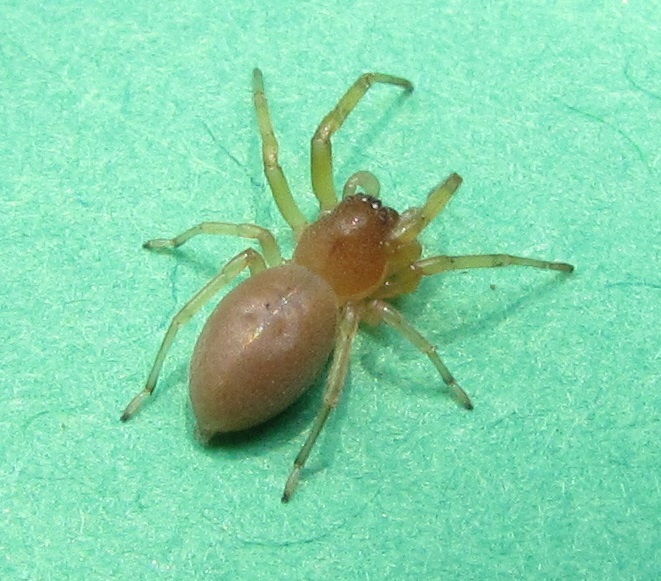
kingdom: Animalia
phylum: Arthropoda
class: Arachnida
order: Araneae
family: Trachelidae
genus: Trachelas
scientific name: Trachelas similis
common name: Corinnid sac spiders
